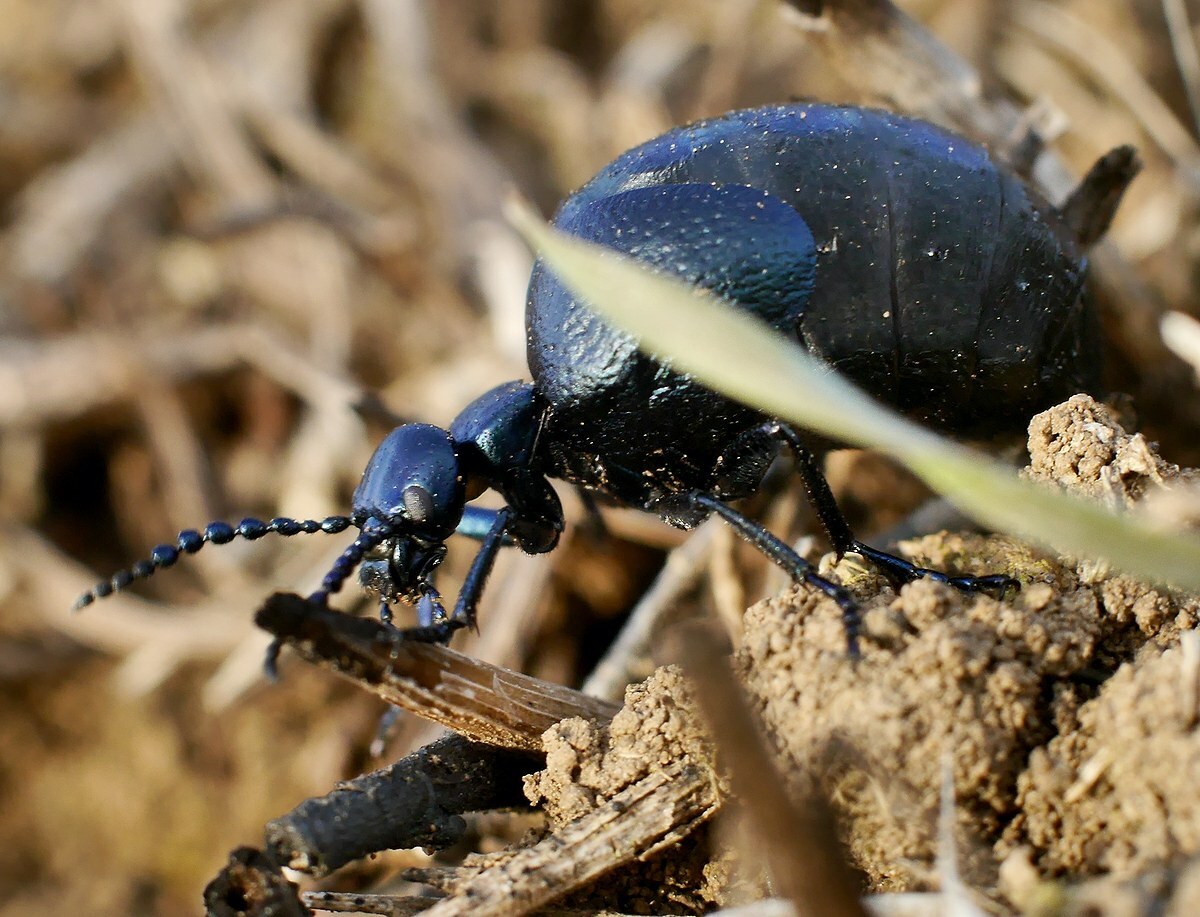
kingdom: Animalia
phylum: Arthropoda
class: Insecta
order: Coleoptera
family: Meloidae
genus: Meloe
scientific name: Meloe autumnalis
